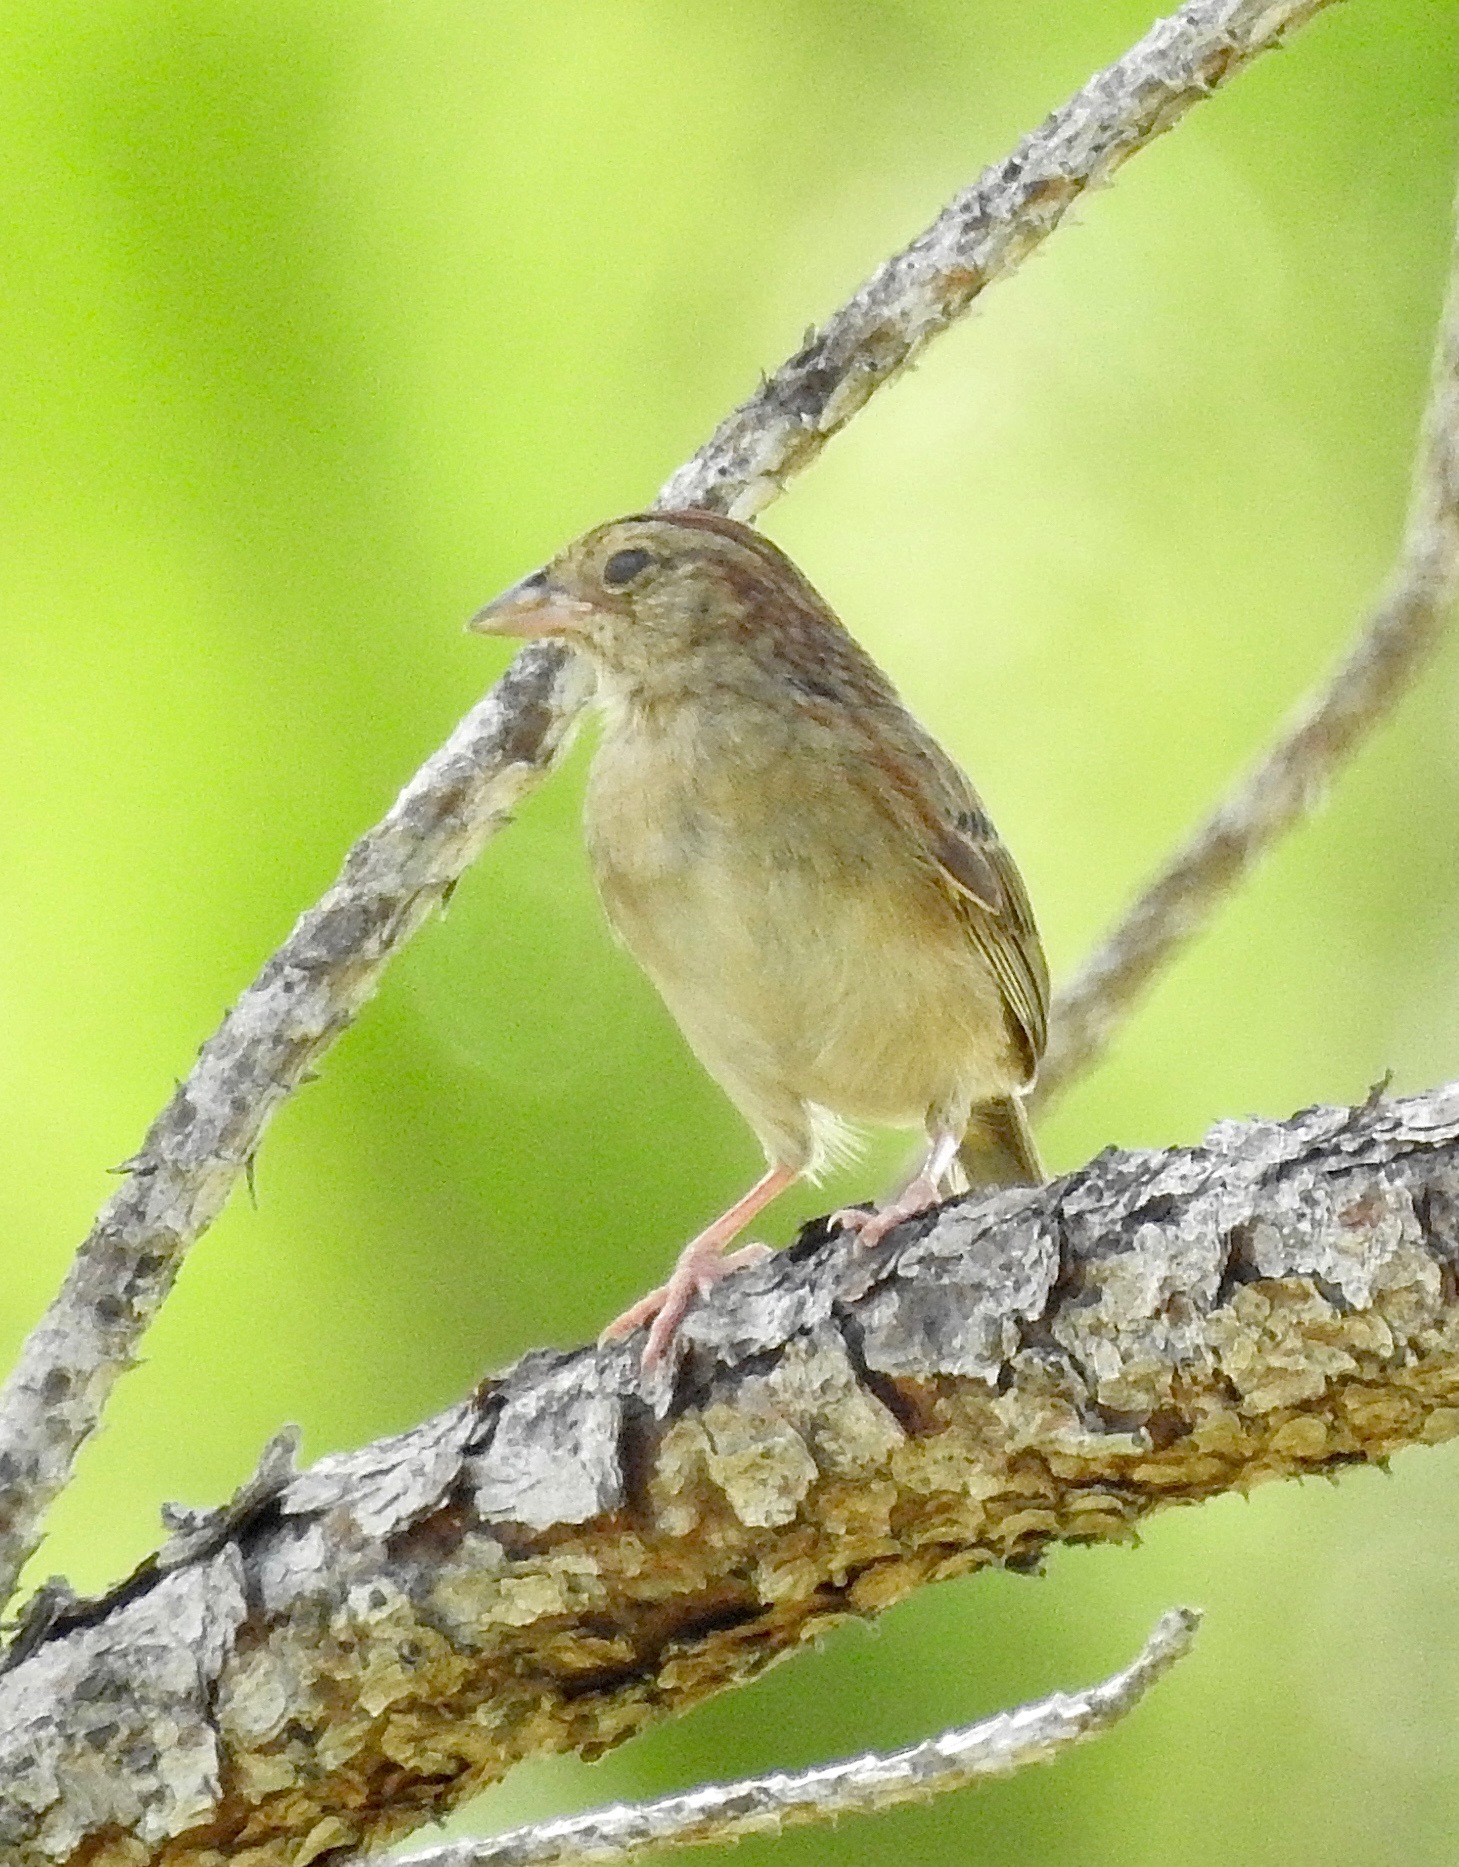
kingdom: Animalia
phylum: Chordata
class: Aves
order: Passeriformes
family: Passerellidae
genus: Peucaea
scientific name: Peucaea aestivalis
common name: Bachman's sparrow
